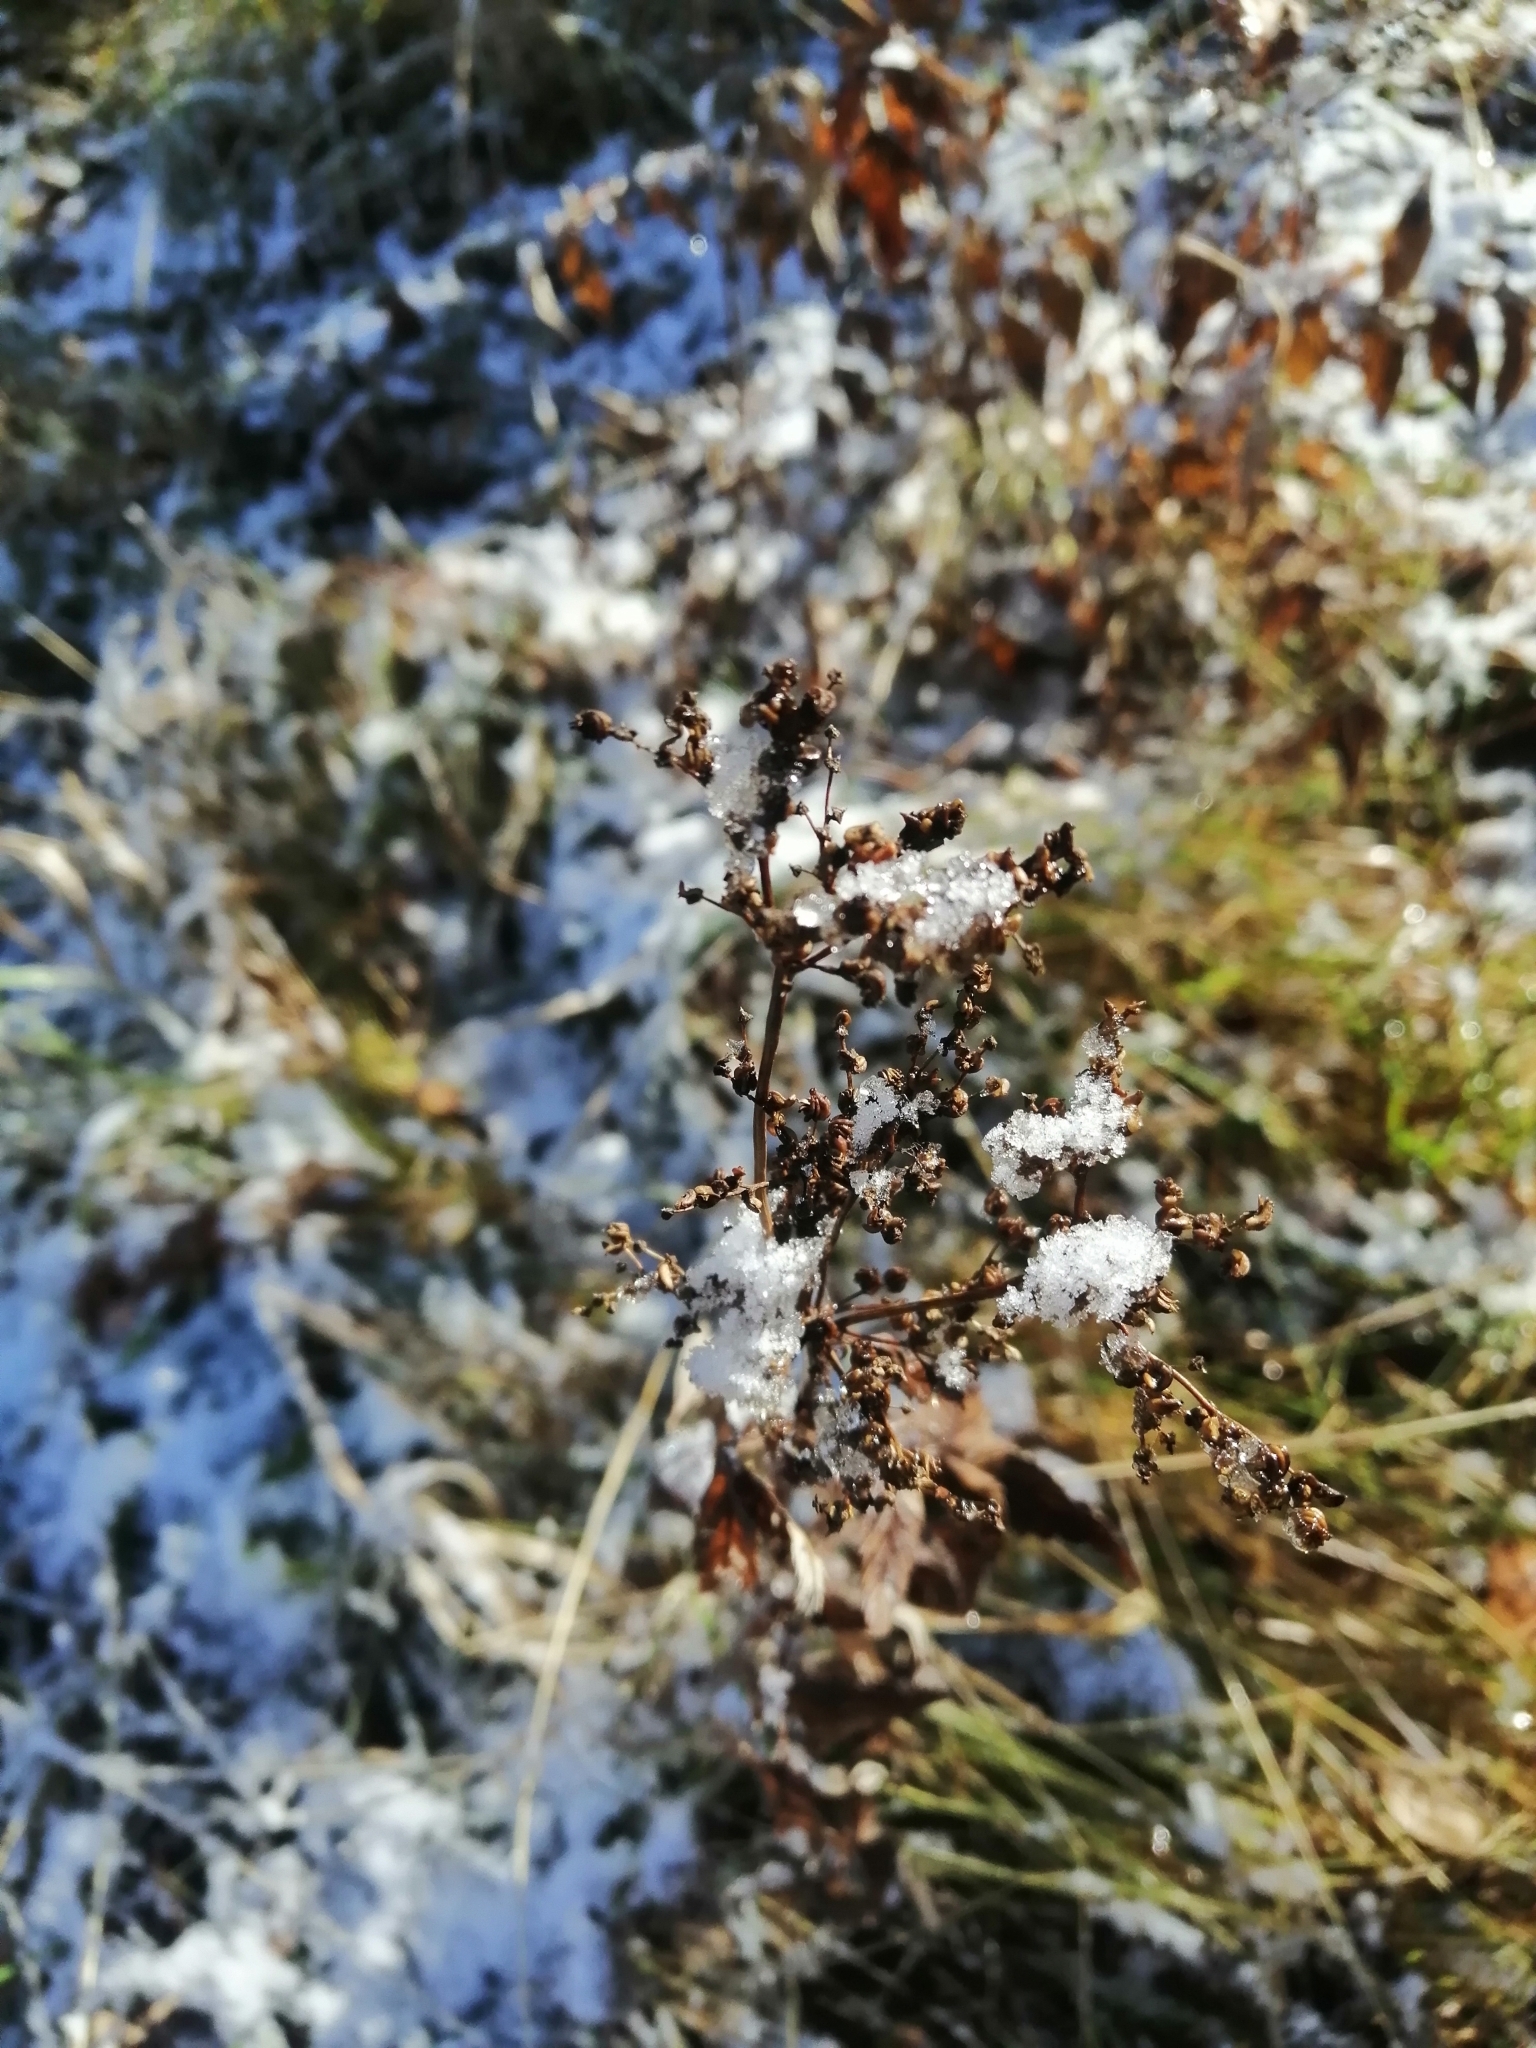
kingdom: Plantae
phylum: Tracheophyta
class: Magnoliopsida
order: Rosales
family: Rosaceae
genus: Filipendula
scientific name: Filipendula ulmaria
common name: Meadowsweet
